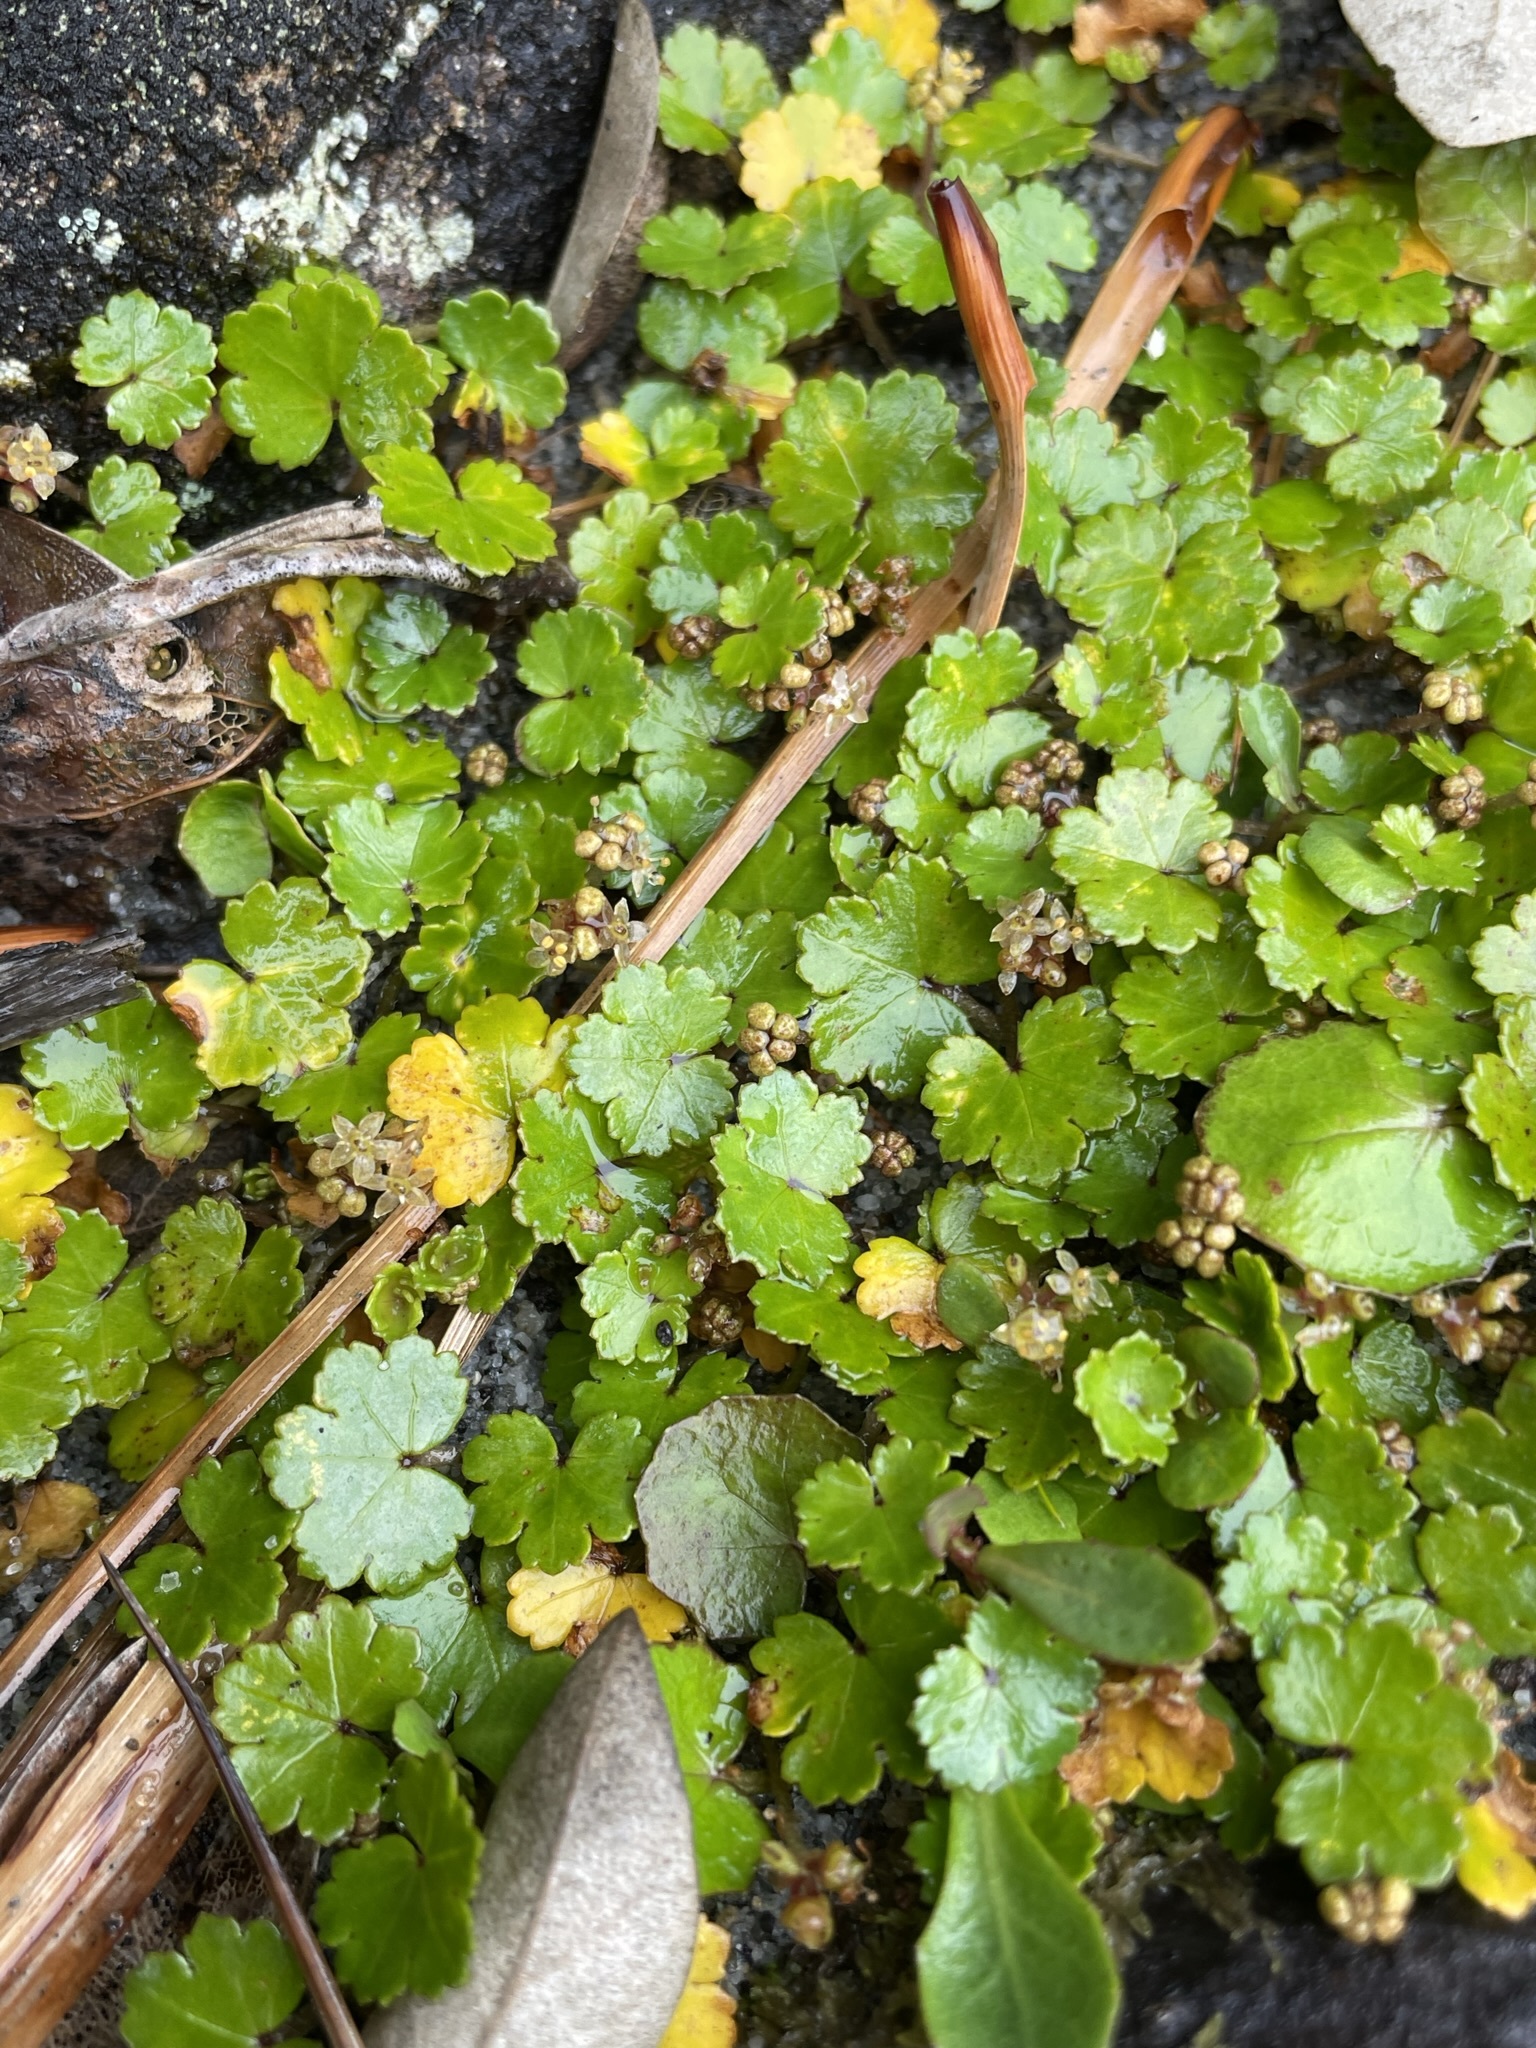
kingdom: Plantae
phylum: Tracheophyta
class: Magnoliopsida
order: Apiales
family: Araliaceae
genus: Hydrocotyle
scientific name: Hydrocotyle microphylla
